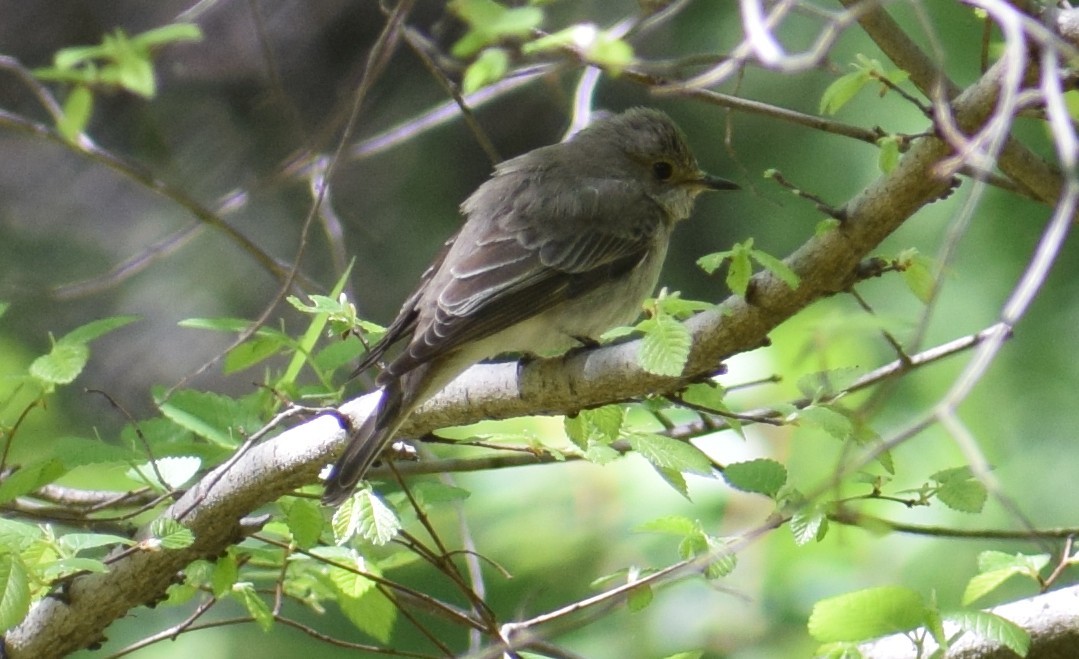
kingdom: Animalia
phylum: Chordata
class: Aves
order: Passeriformes
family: Muscicapidae
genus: Muscicapa
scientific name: Muscicapa striata
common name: Spotted flycatcher
